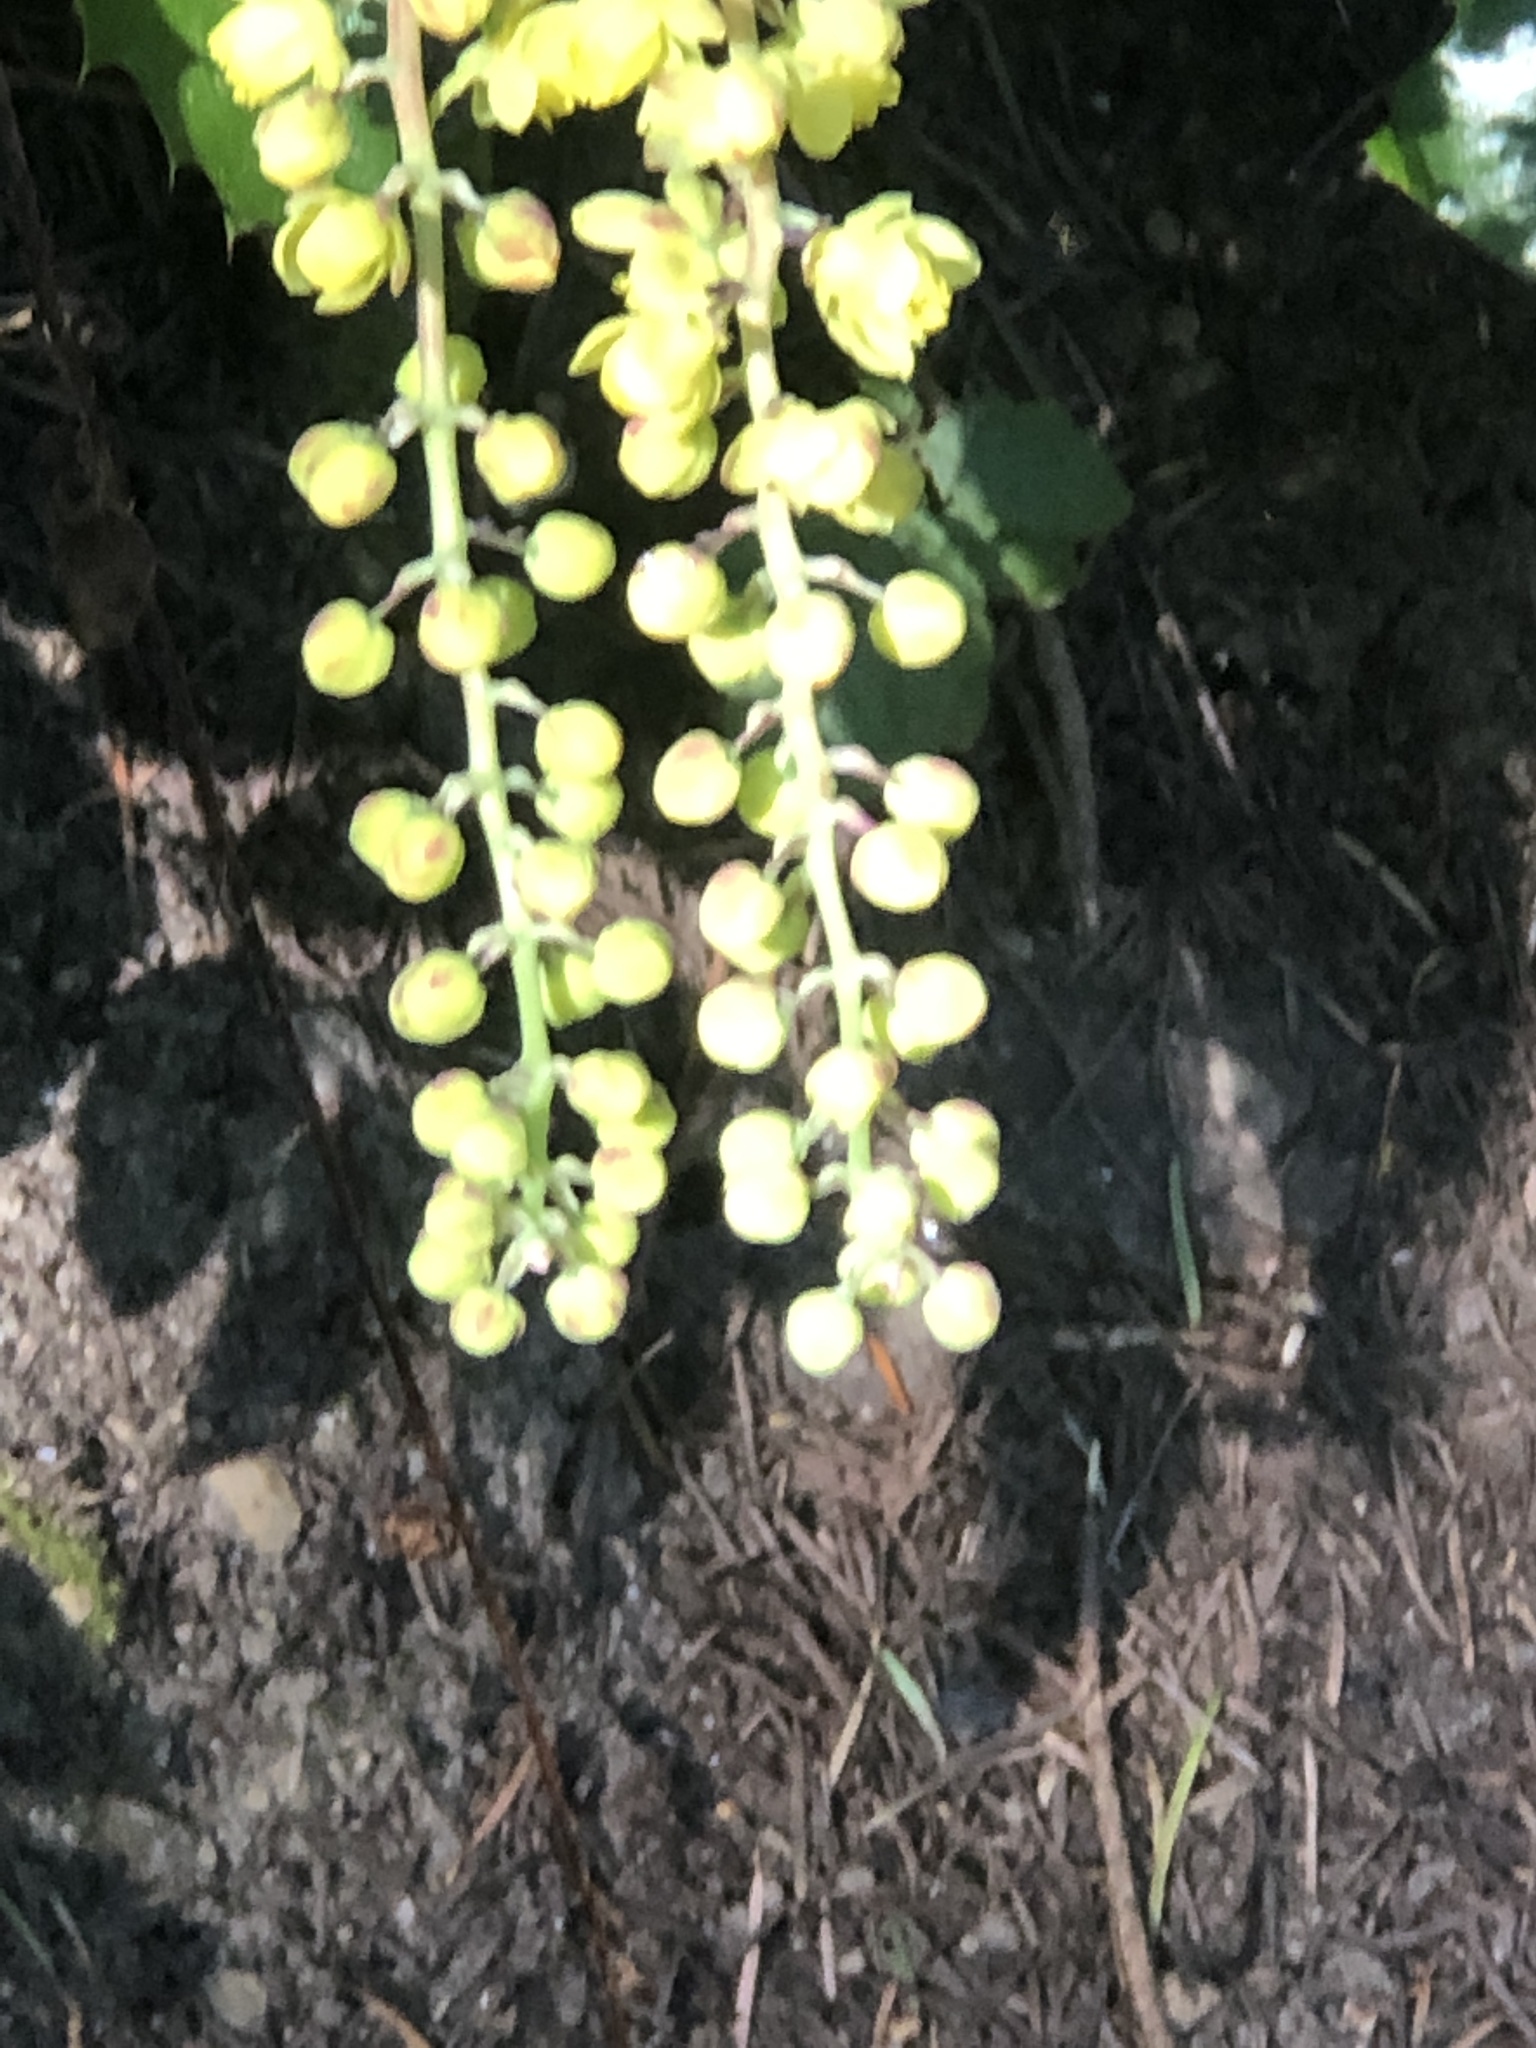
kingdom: Plantae
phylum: Tracheophyta
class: Magnoliopsida
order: Ranunculales
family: Berberidaceae
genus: Mahonia
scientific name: Mahonia nervosa
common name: Cascade oregon-grape
